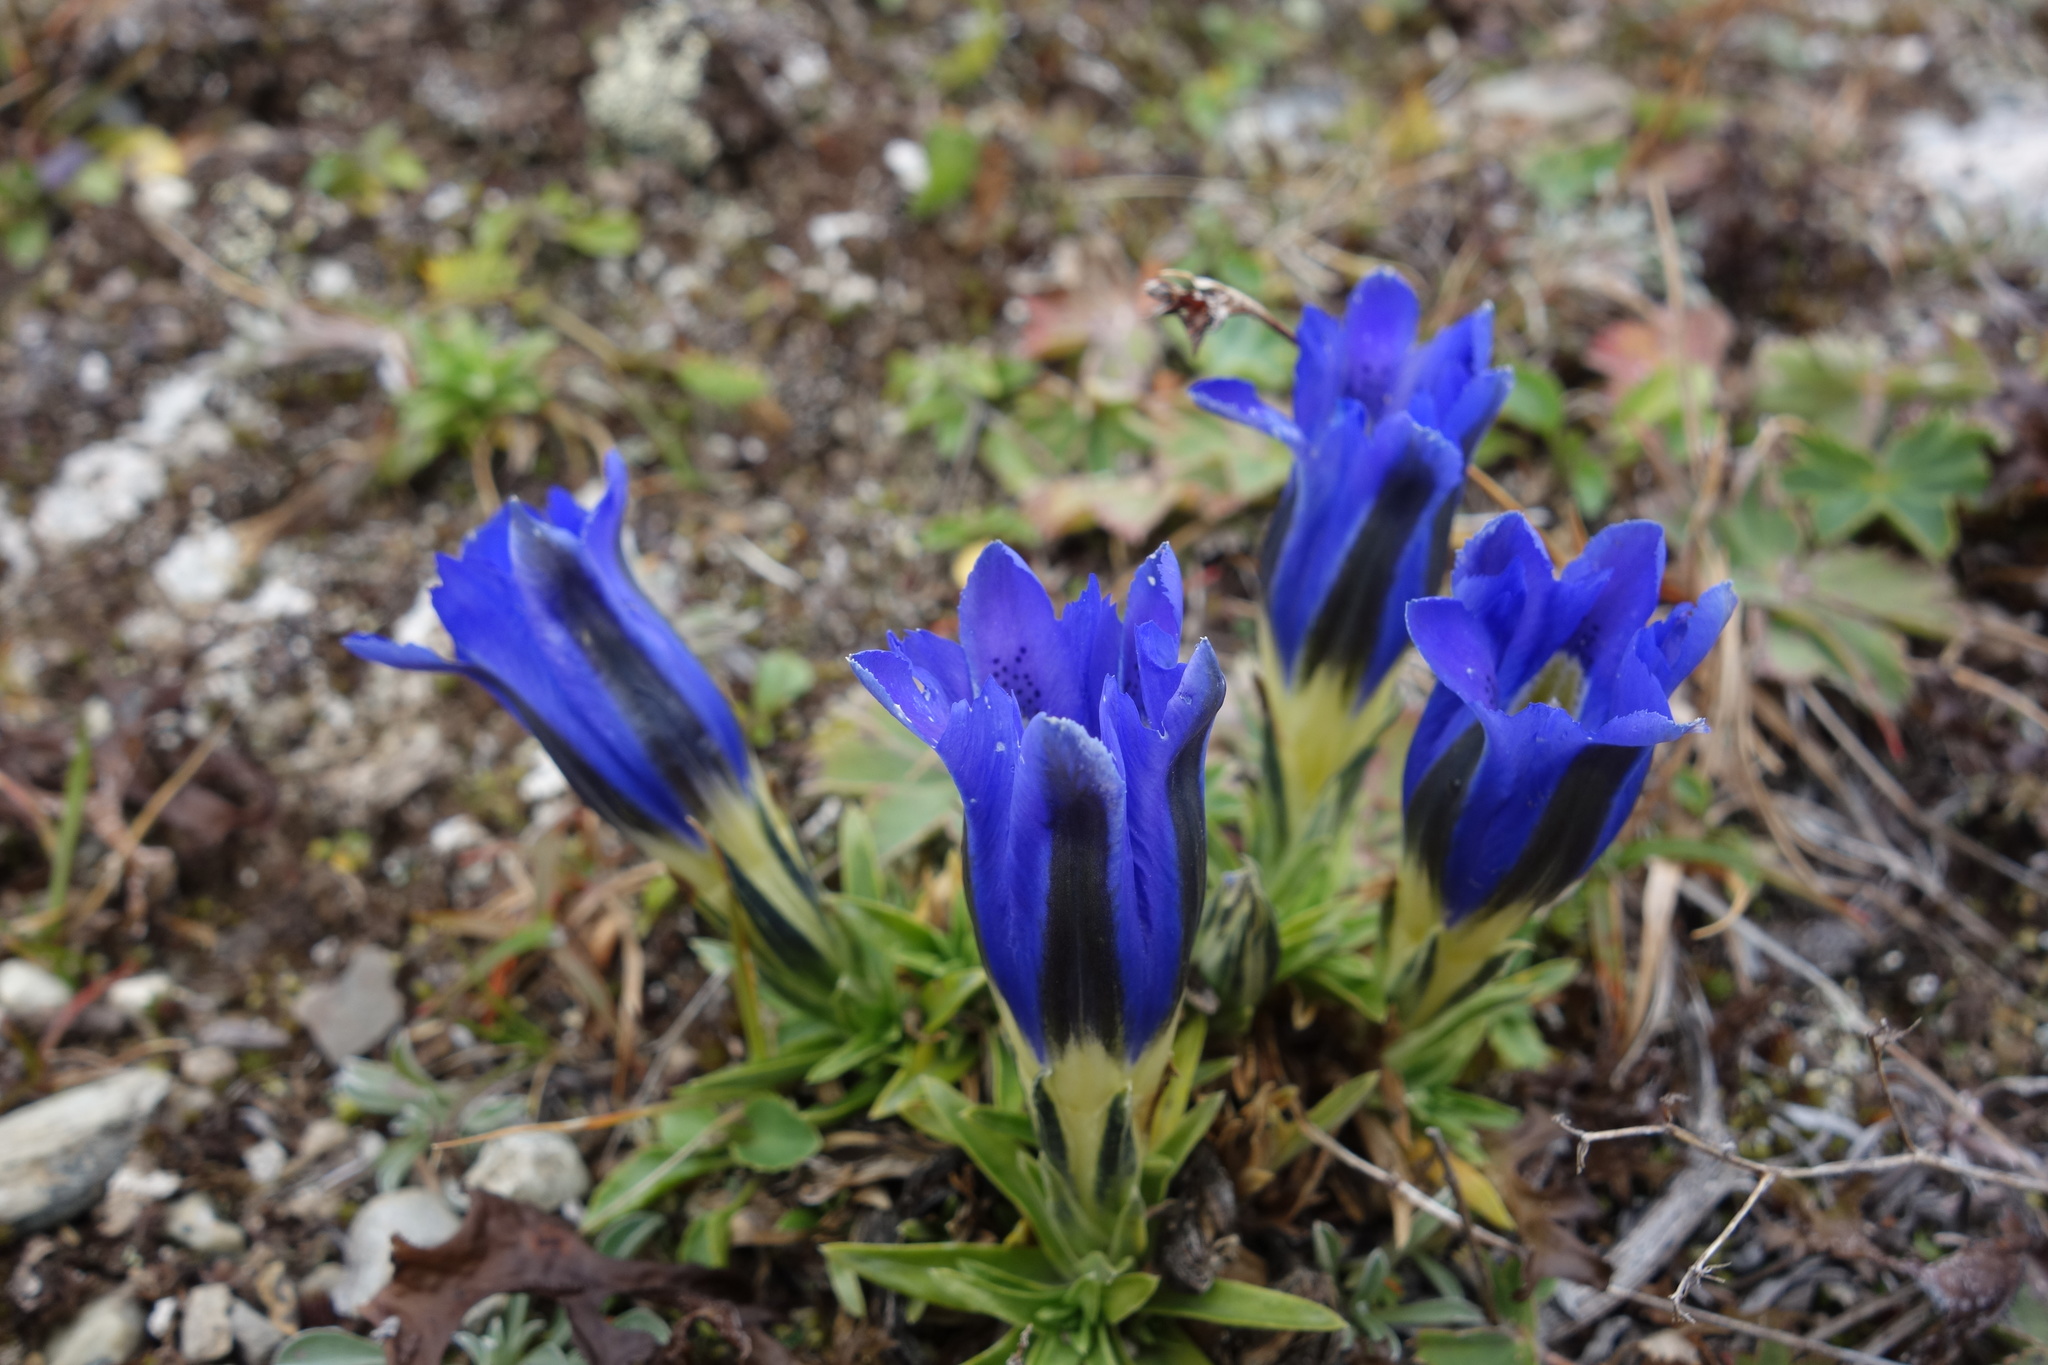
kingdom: Plantae
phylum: Tracheophyta
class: Magnoliopsida
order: Gentianales
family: Gentianaceae
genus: Gentiana
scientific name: Gentiana grandiflora
